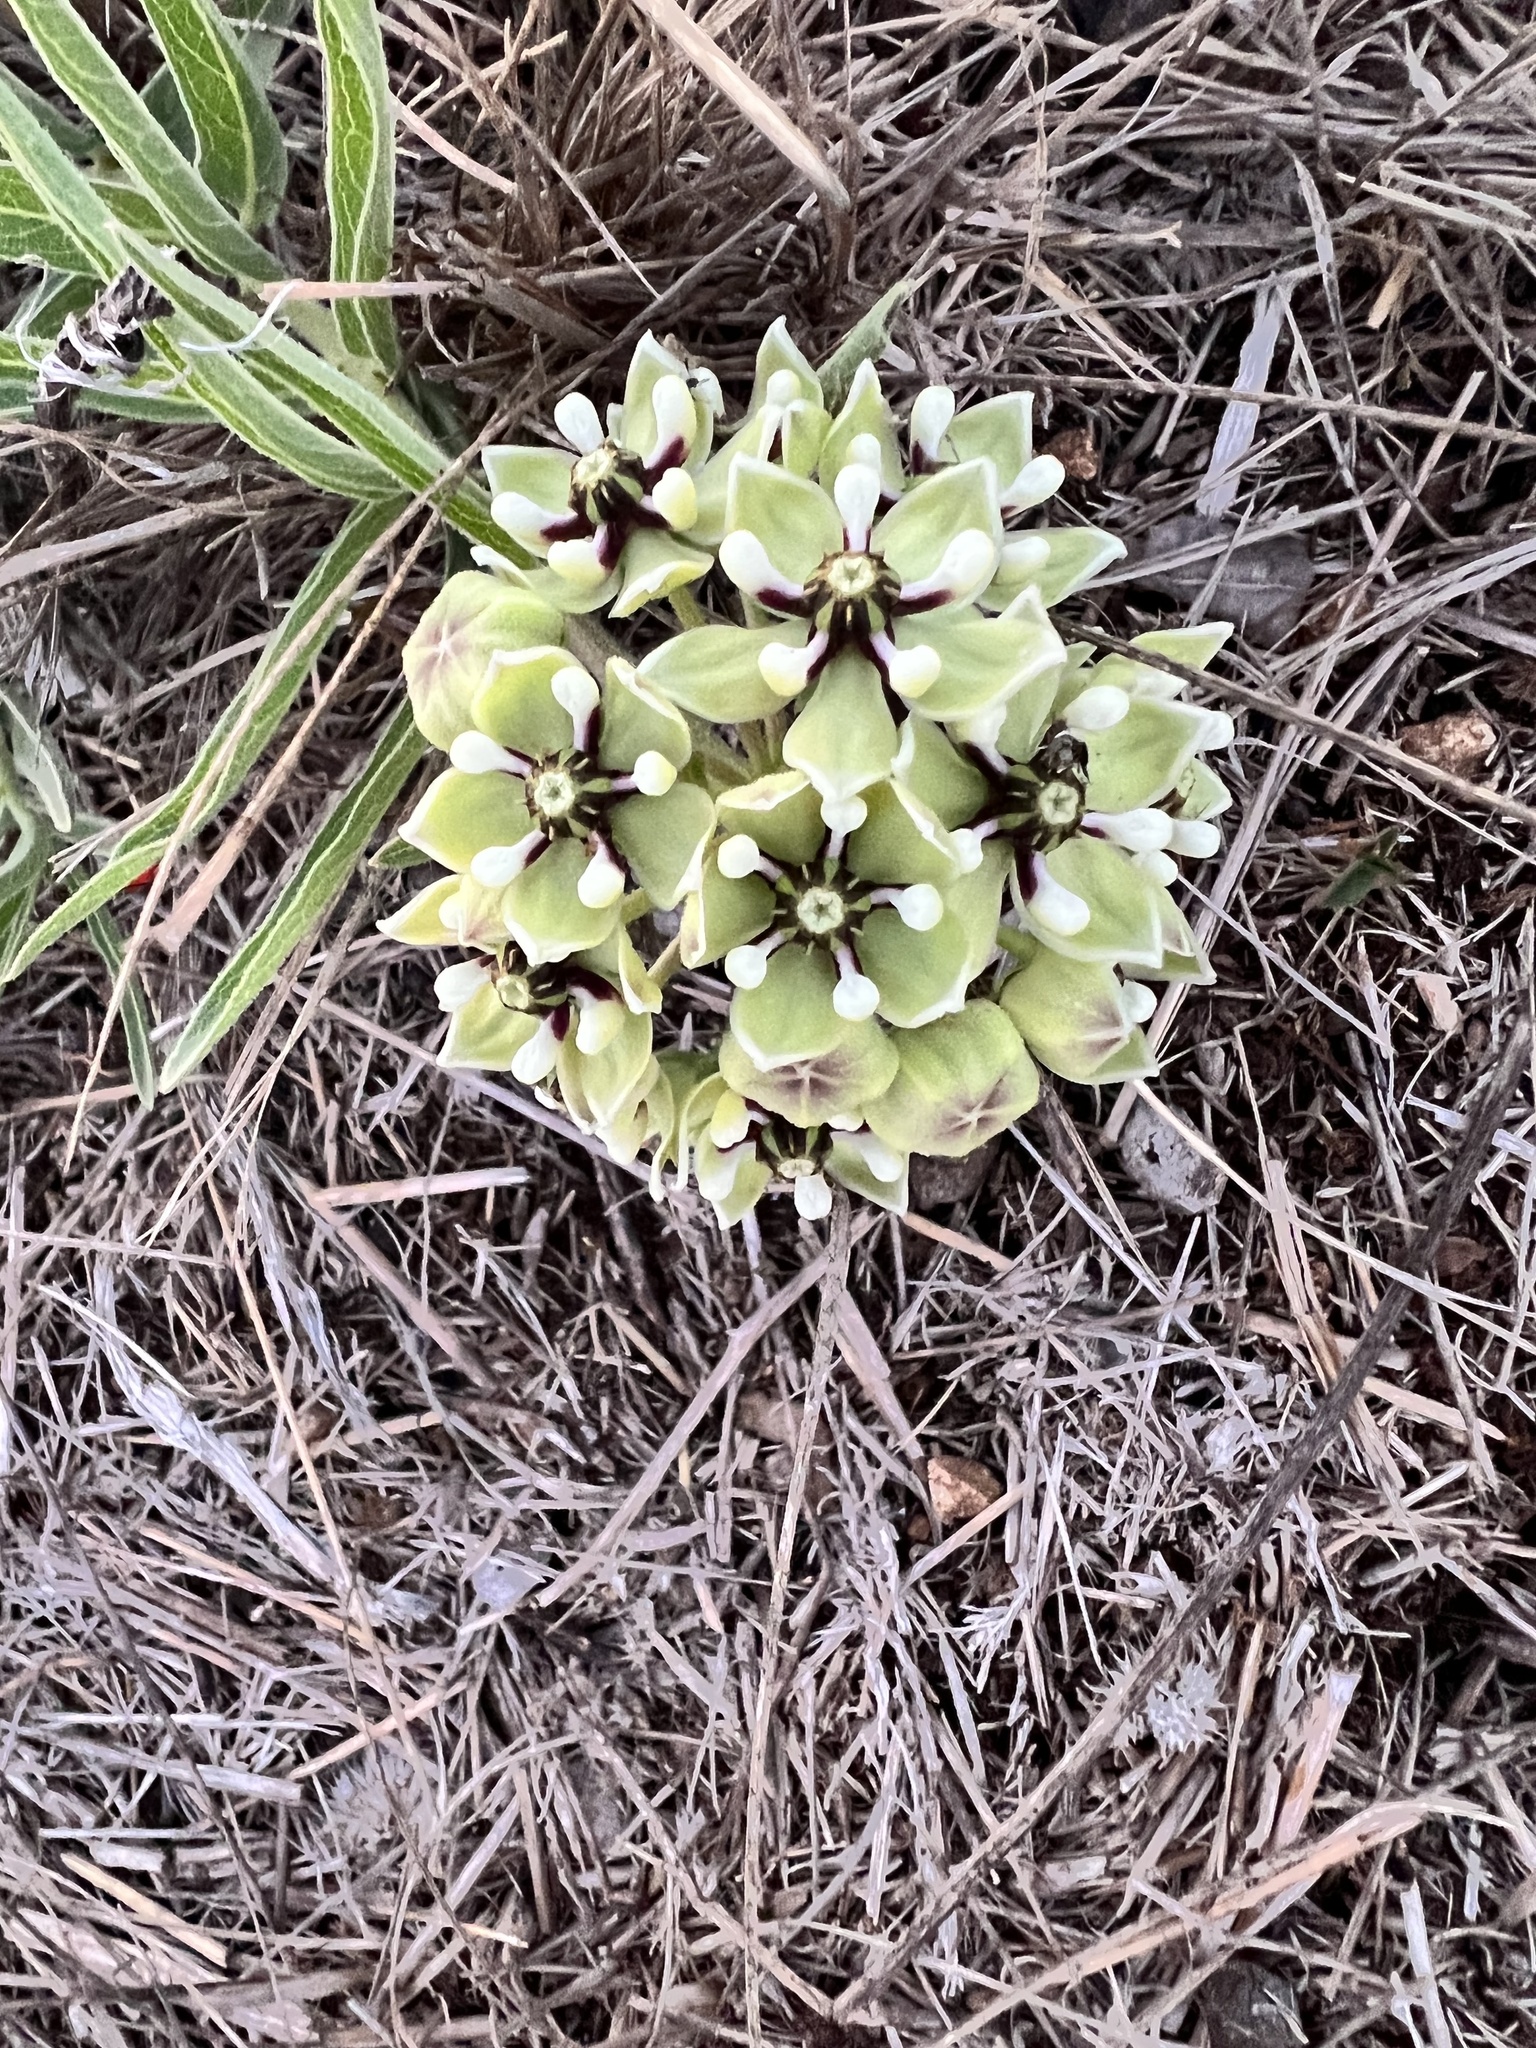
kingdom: Plantae
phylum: Tracheophyta
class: Magnoliopsida
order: Gentianales
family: Apocynaceae
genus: Asclepias
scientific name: Asclepias asperula
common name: Antelope horns
